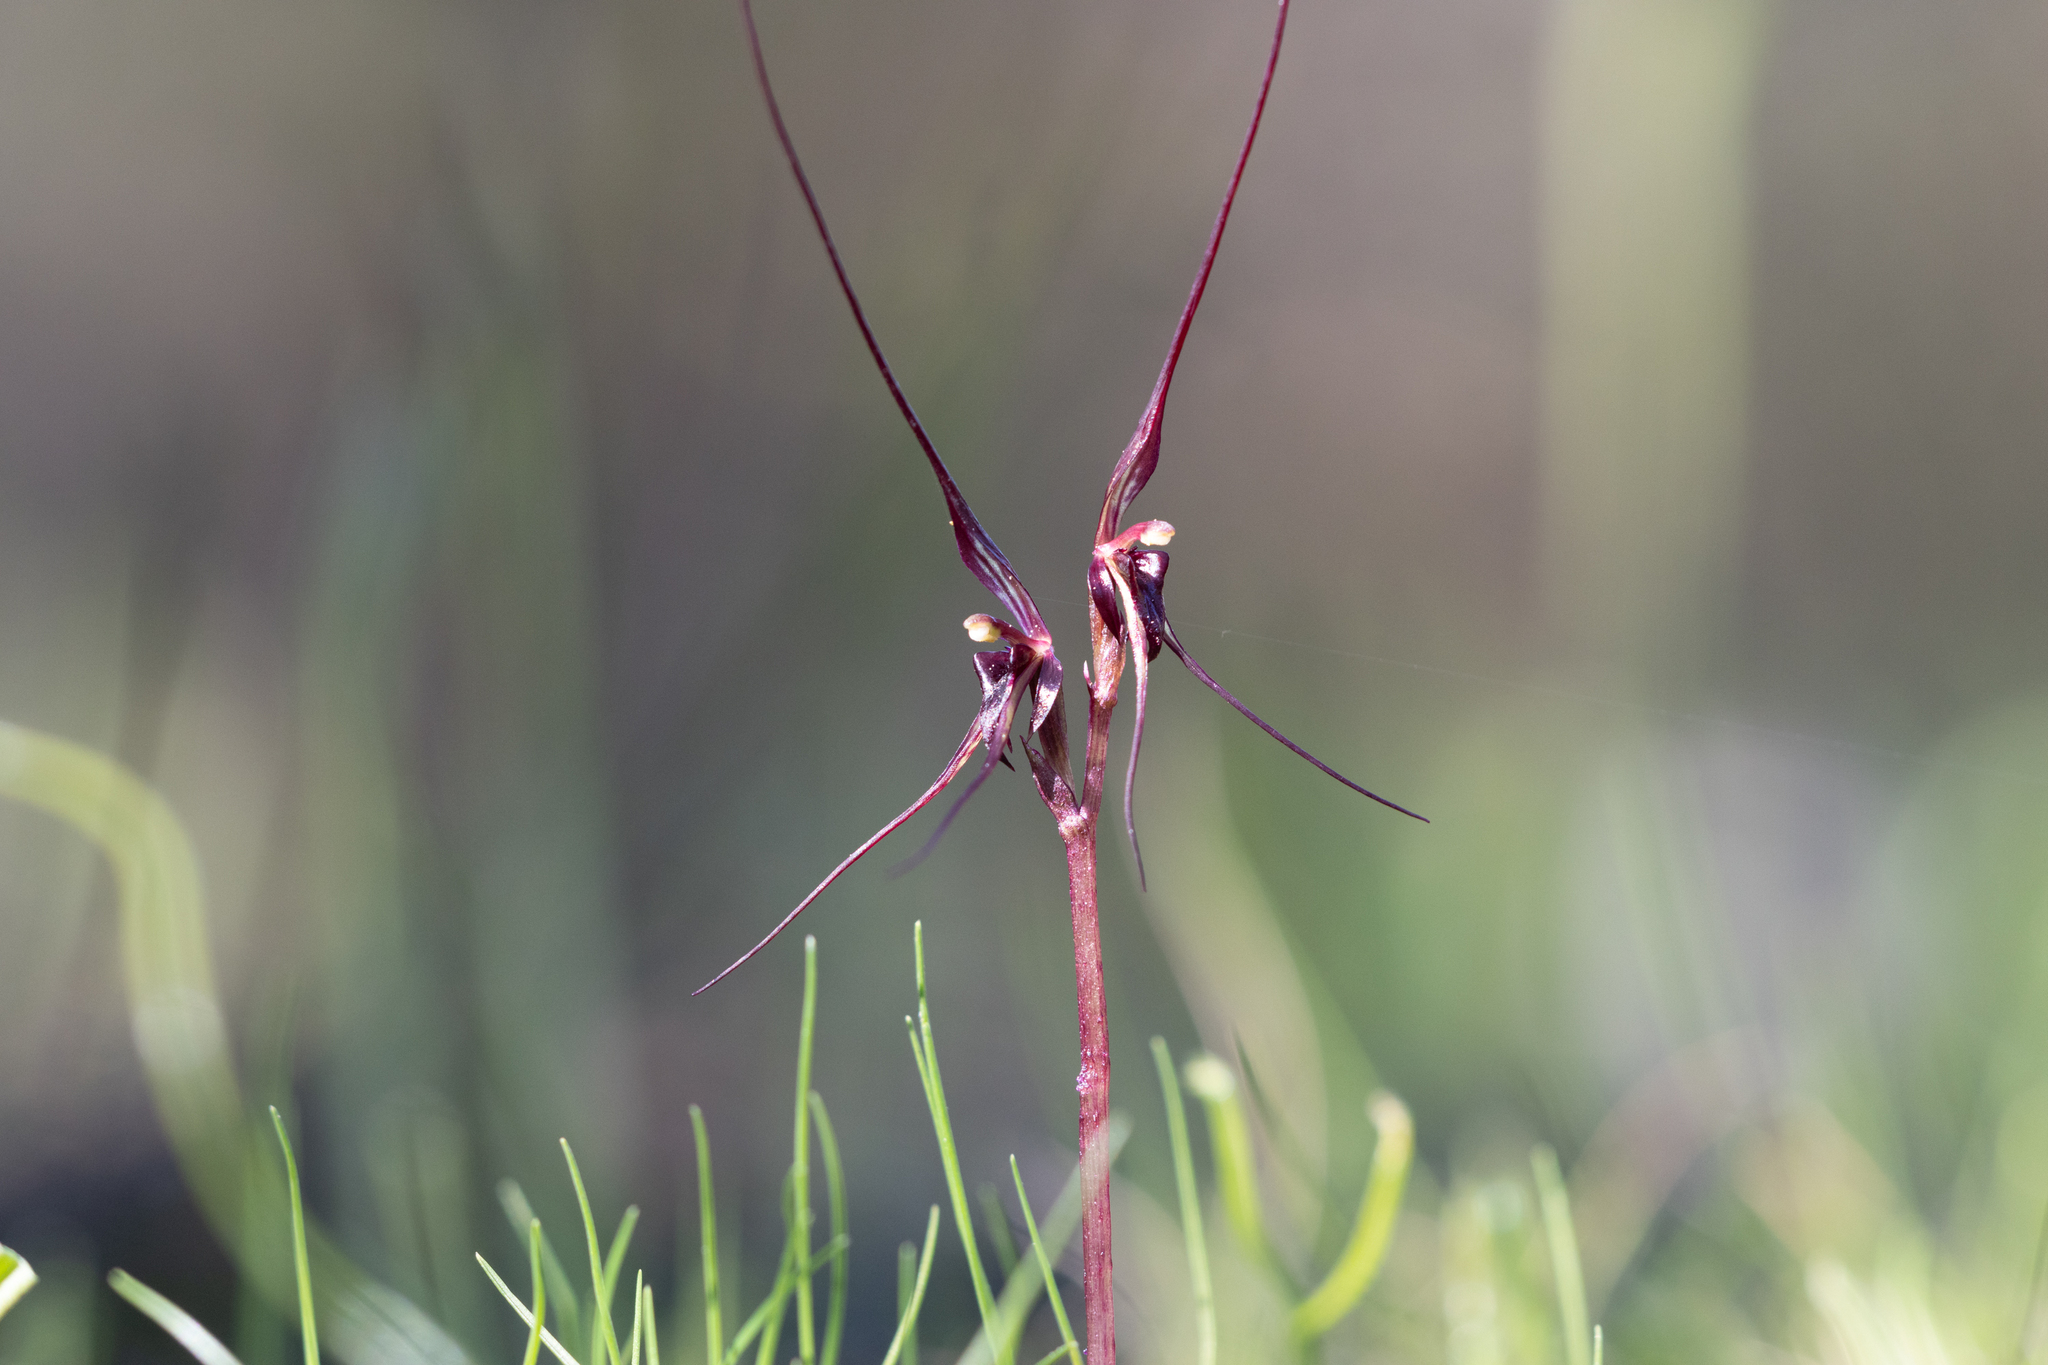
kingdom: Plantae
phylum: Tracheophyta
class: Liliopsida
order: Asparagales
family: Orchidaceae
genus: Acianthus
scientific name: Acianthus caudatus
